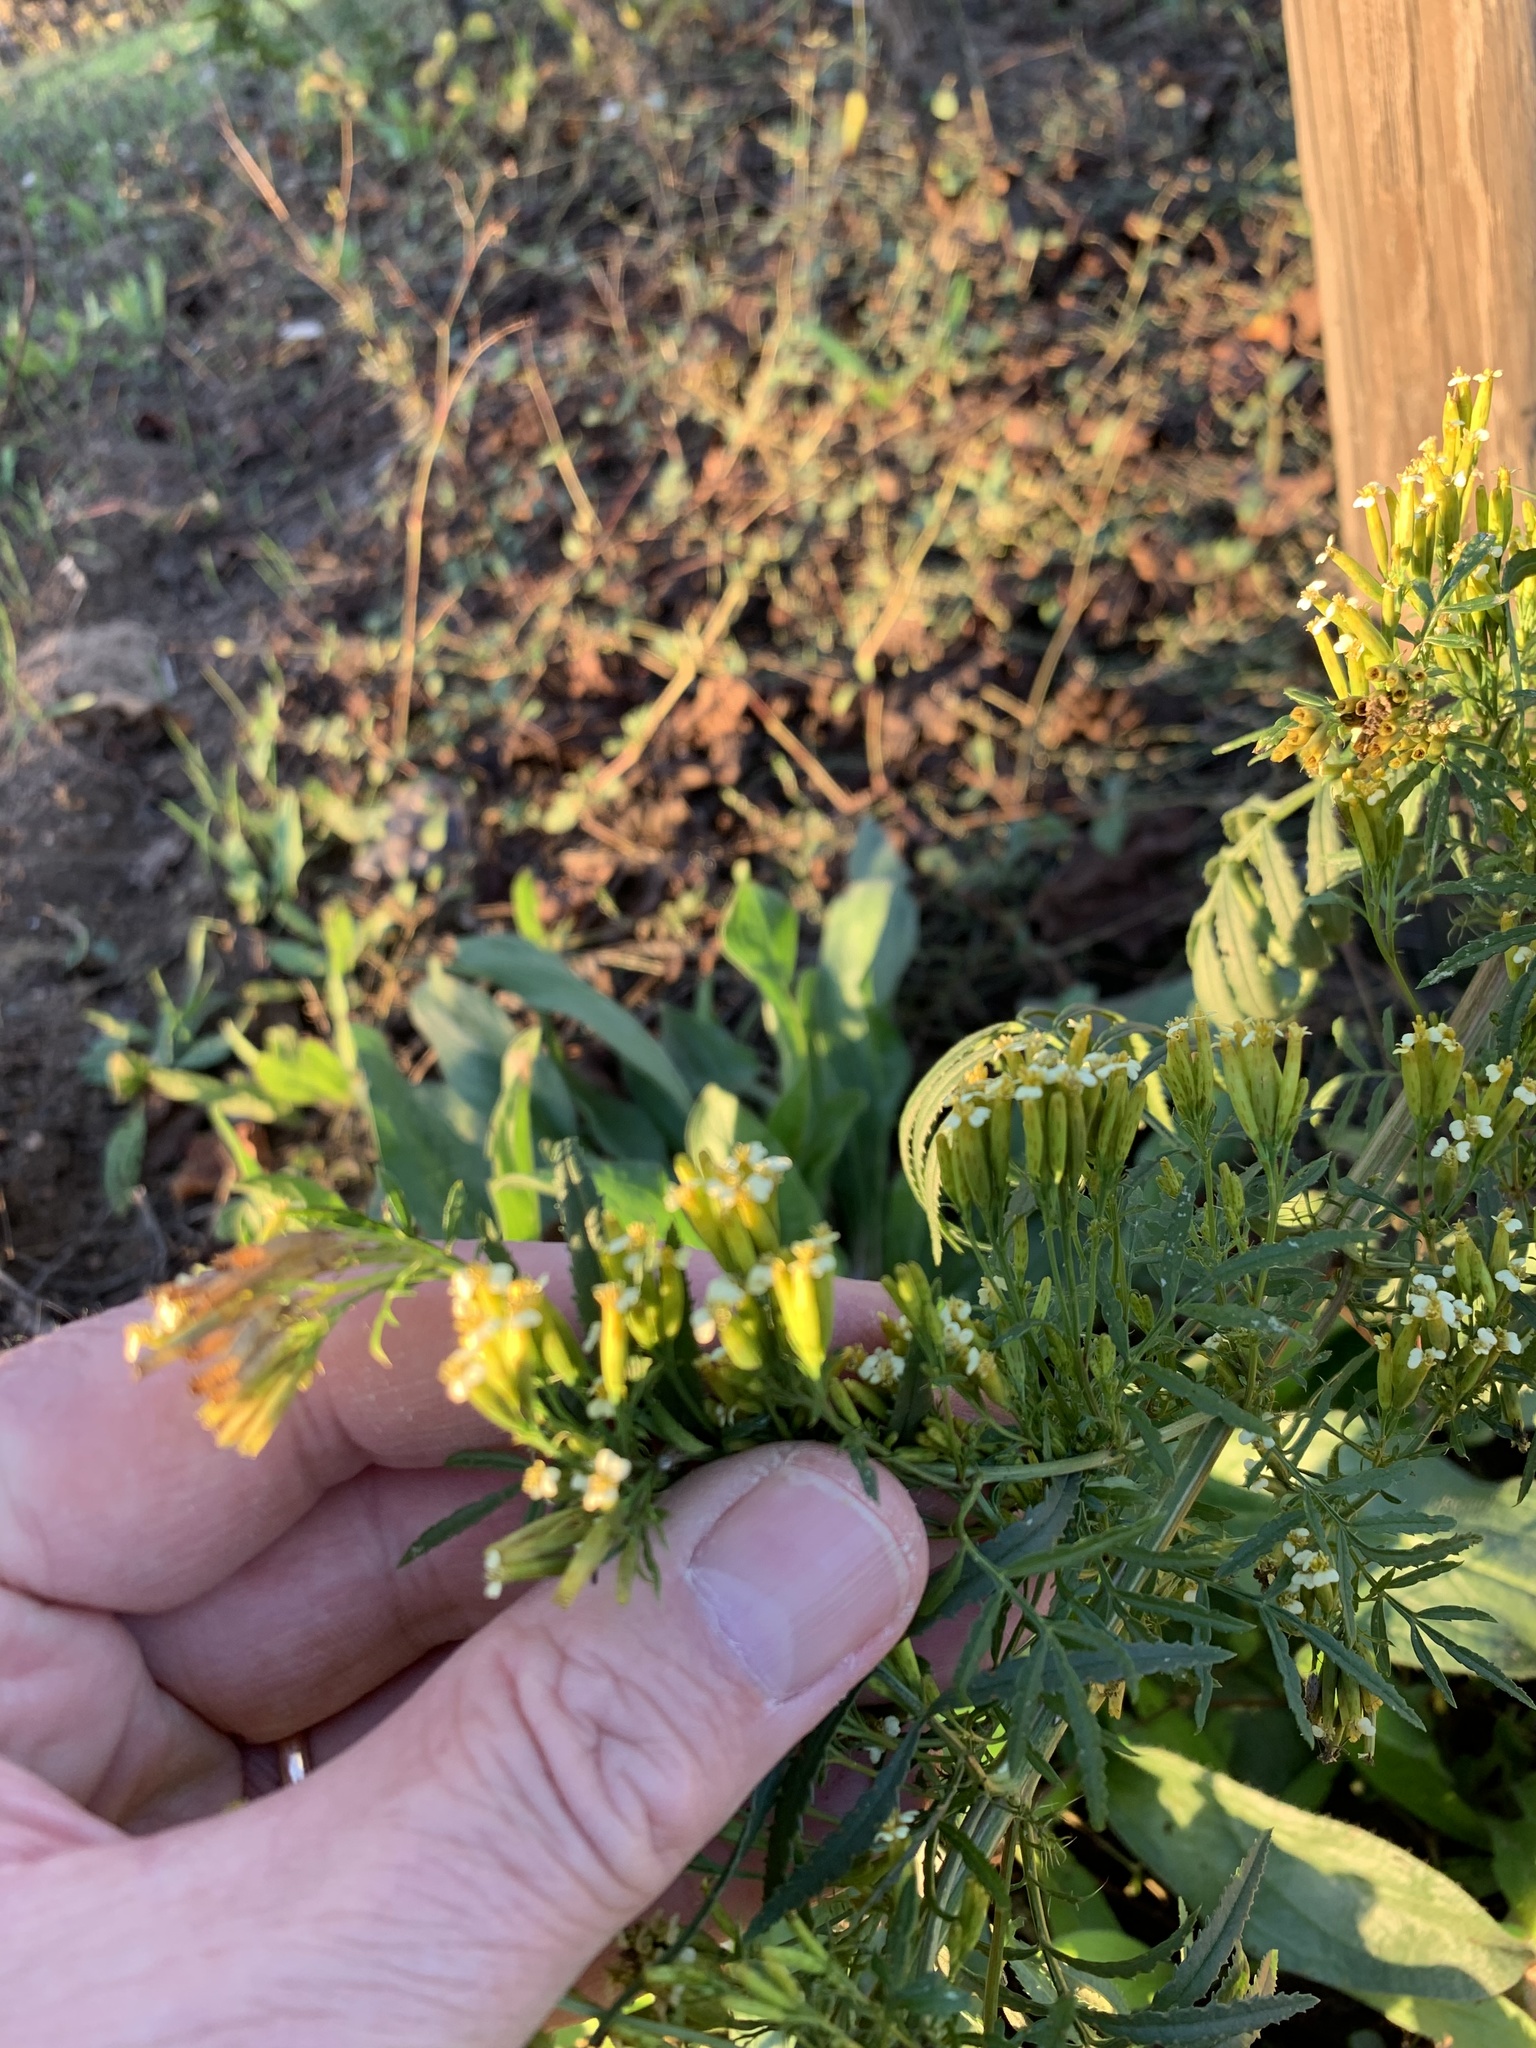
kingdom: Plantae
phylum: Tracheophyta
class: Magnoliopsida
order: Asterales
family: Asteraceae
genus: Tagetes
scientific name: Tagetes minuta
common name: Muster john henry
